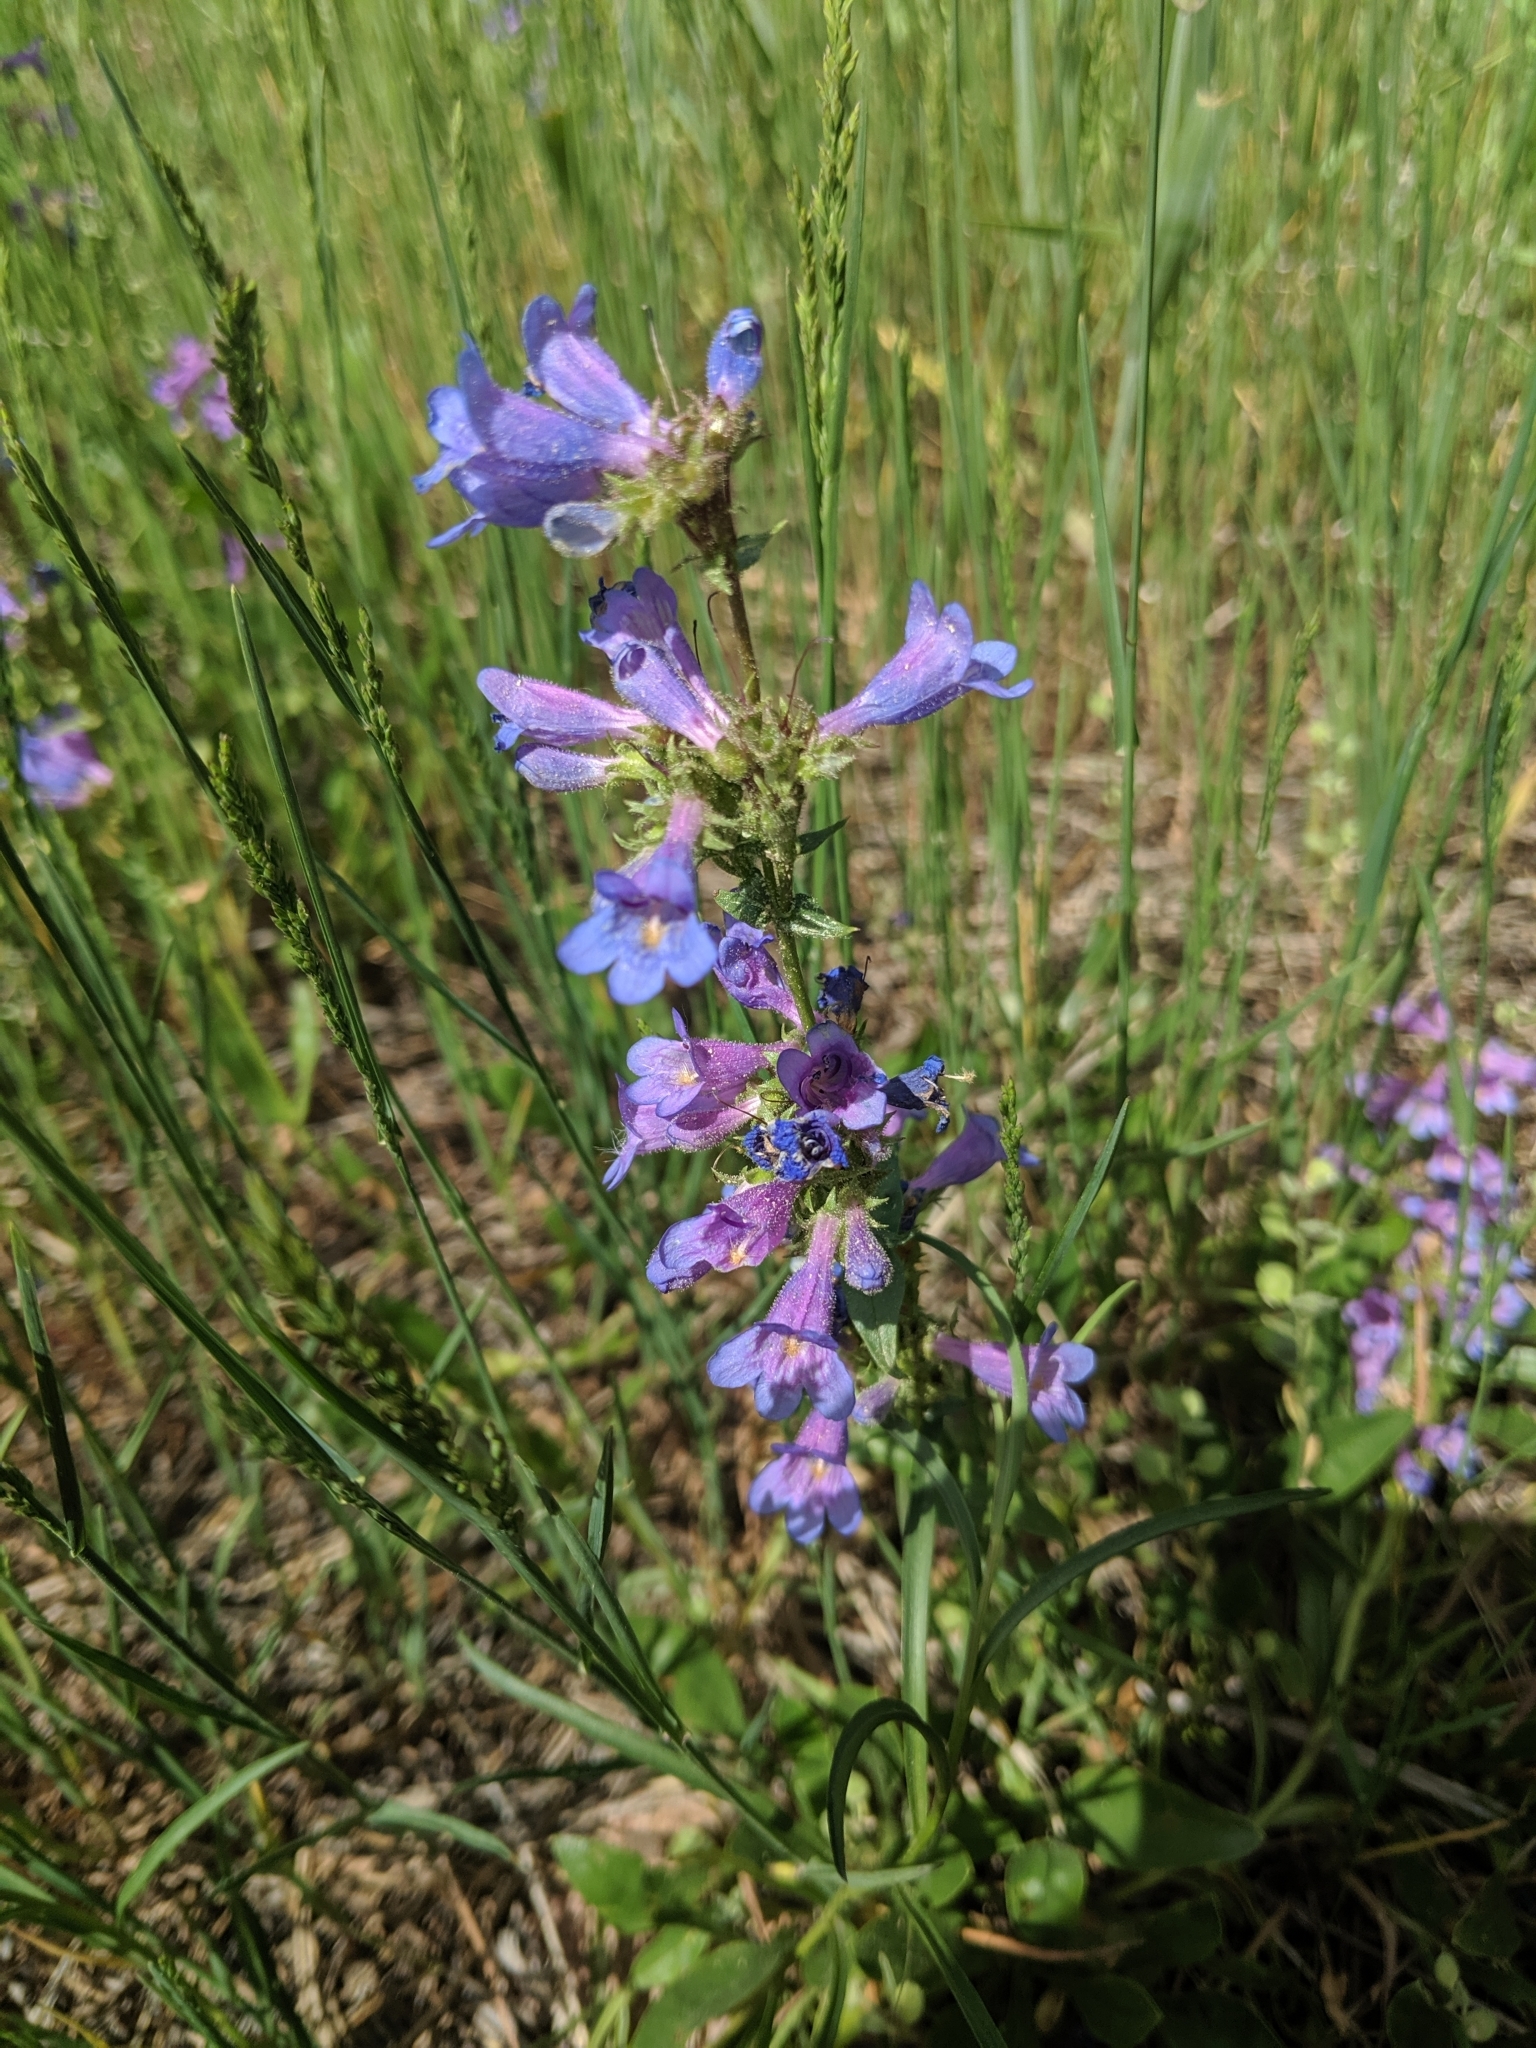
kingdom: Plantae
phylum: Tracheophyta
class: Magnoliopsida
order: Lamiales
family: Plantaginaceae
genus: Penstemon
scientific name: Penstemon virens
